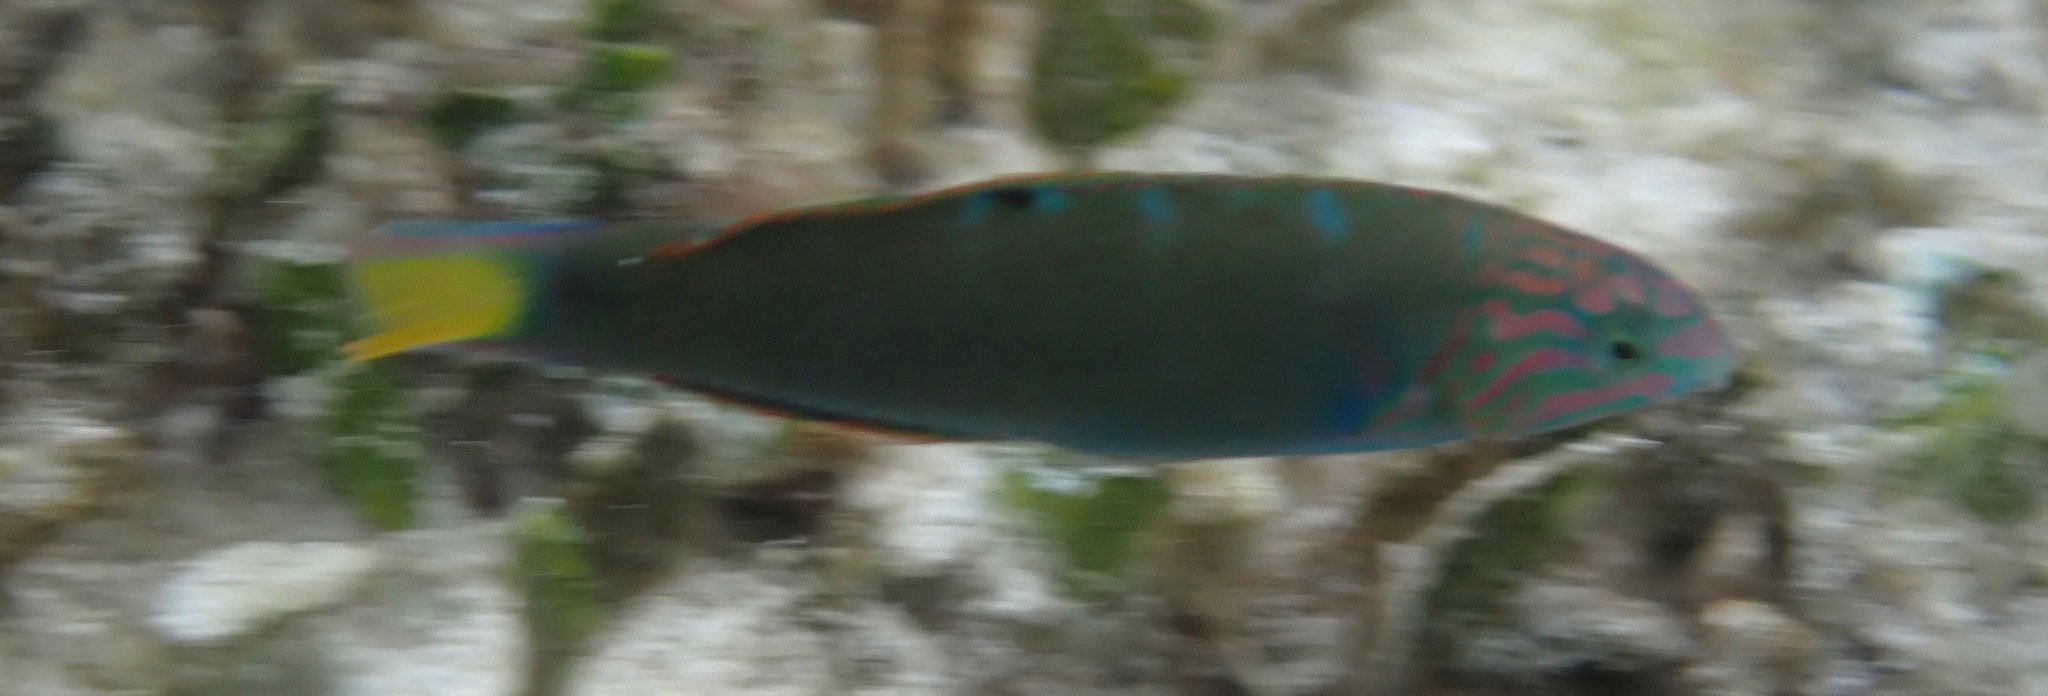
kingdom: Animalia
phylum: Chordata
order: Perciformes
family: Labridae
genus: Thalassoma
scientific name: Thalassoma lunare
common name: Blue wrasse
